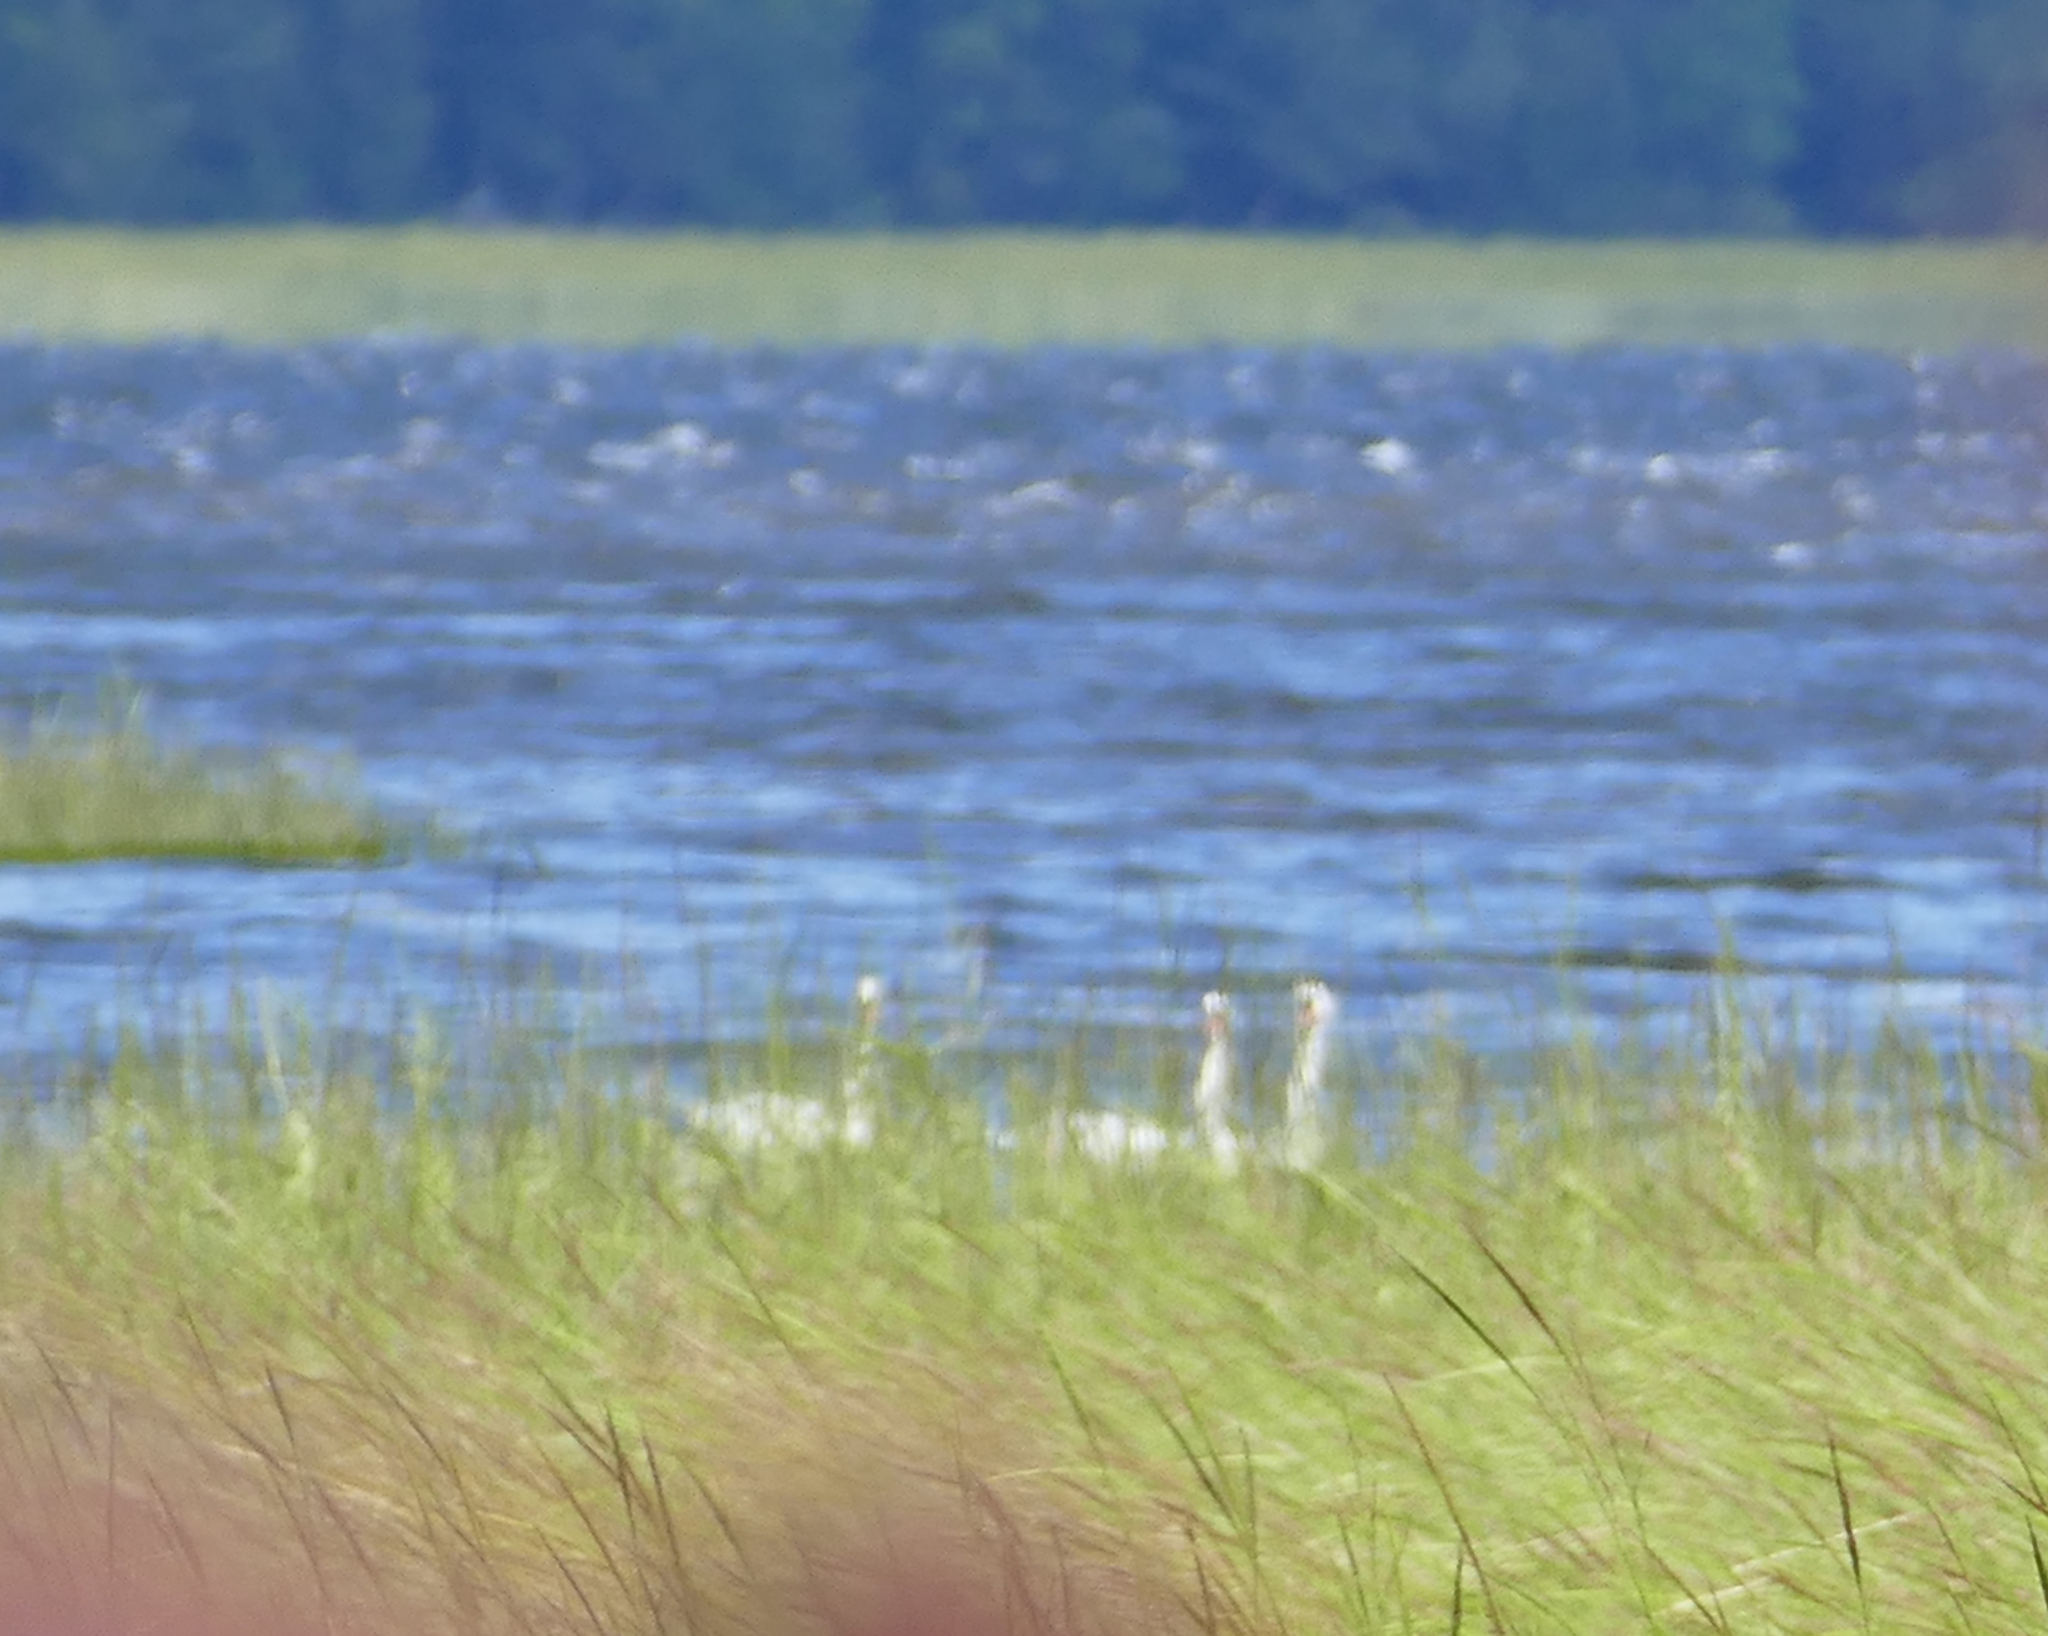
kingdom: Animalia
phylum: Chordata
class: Aves
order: Anseriformes
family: Anatidae
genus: Cygnus
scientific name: Cygnus olor
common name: Mute swan
